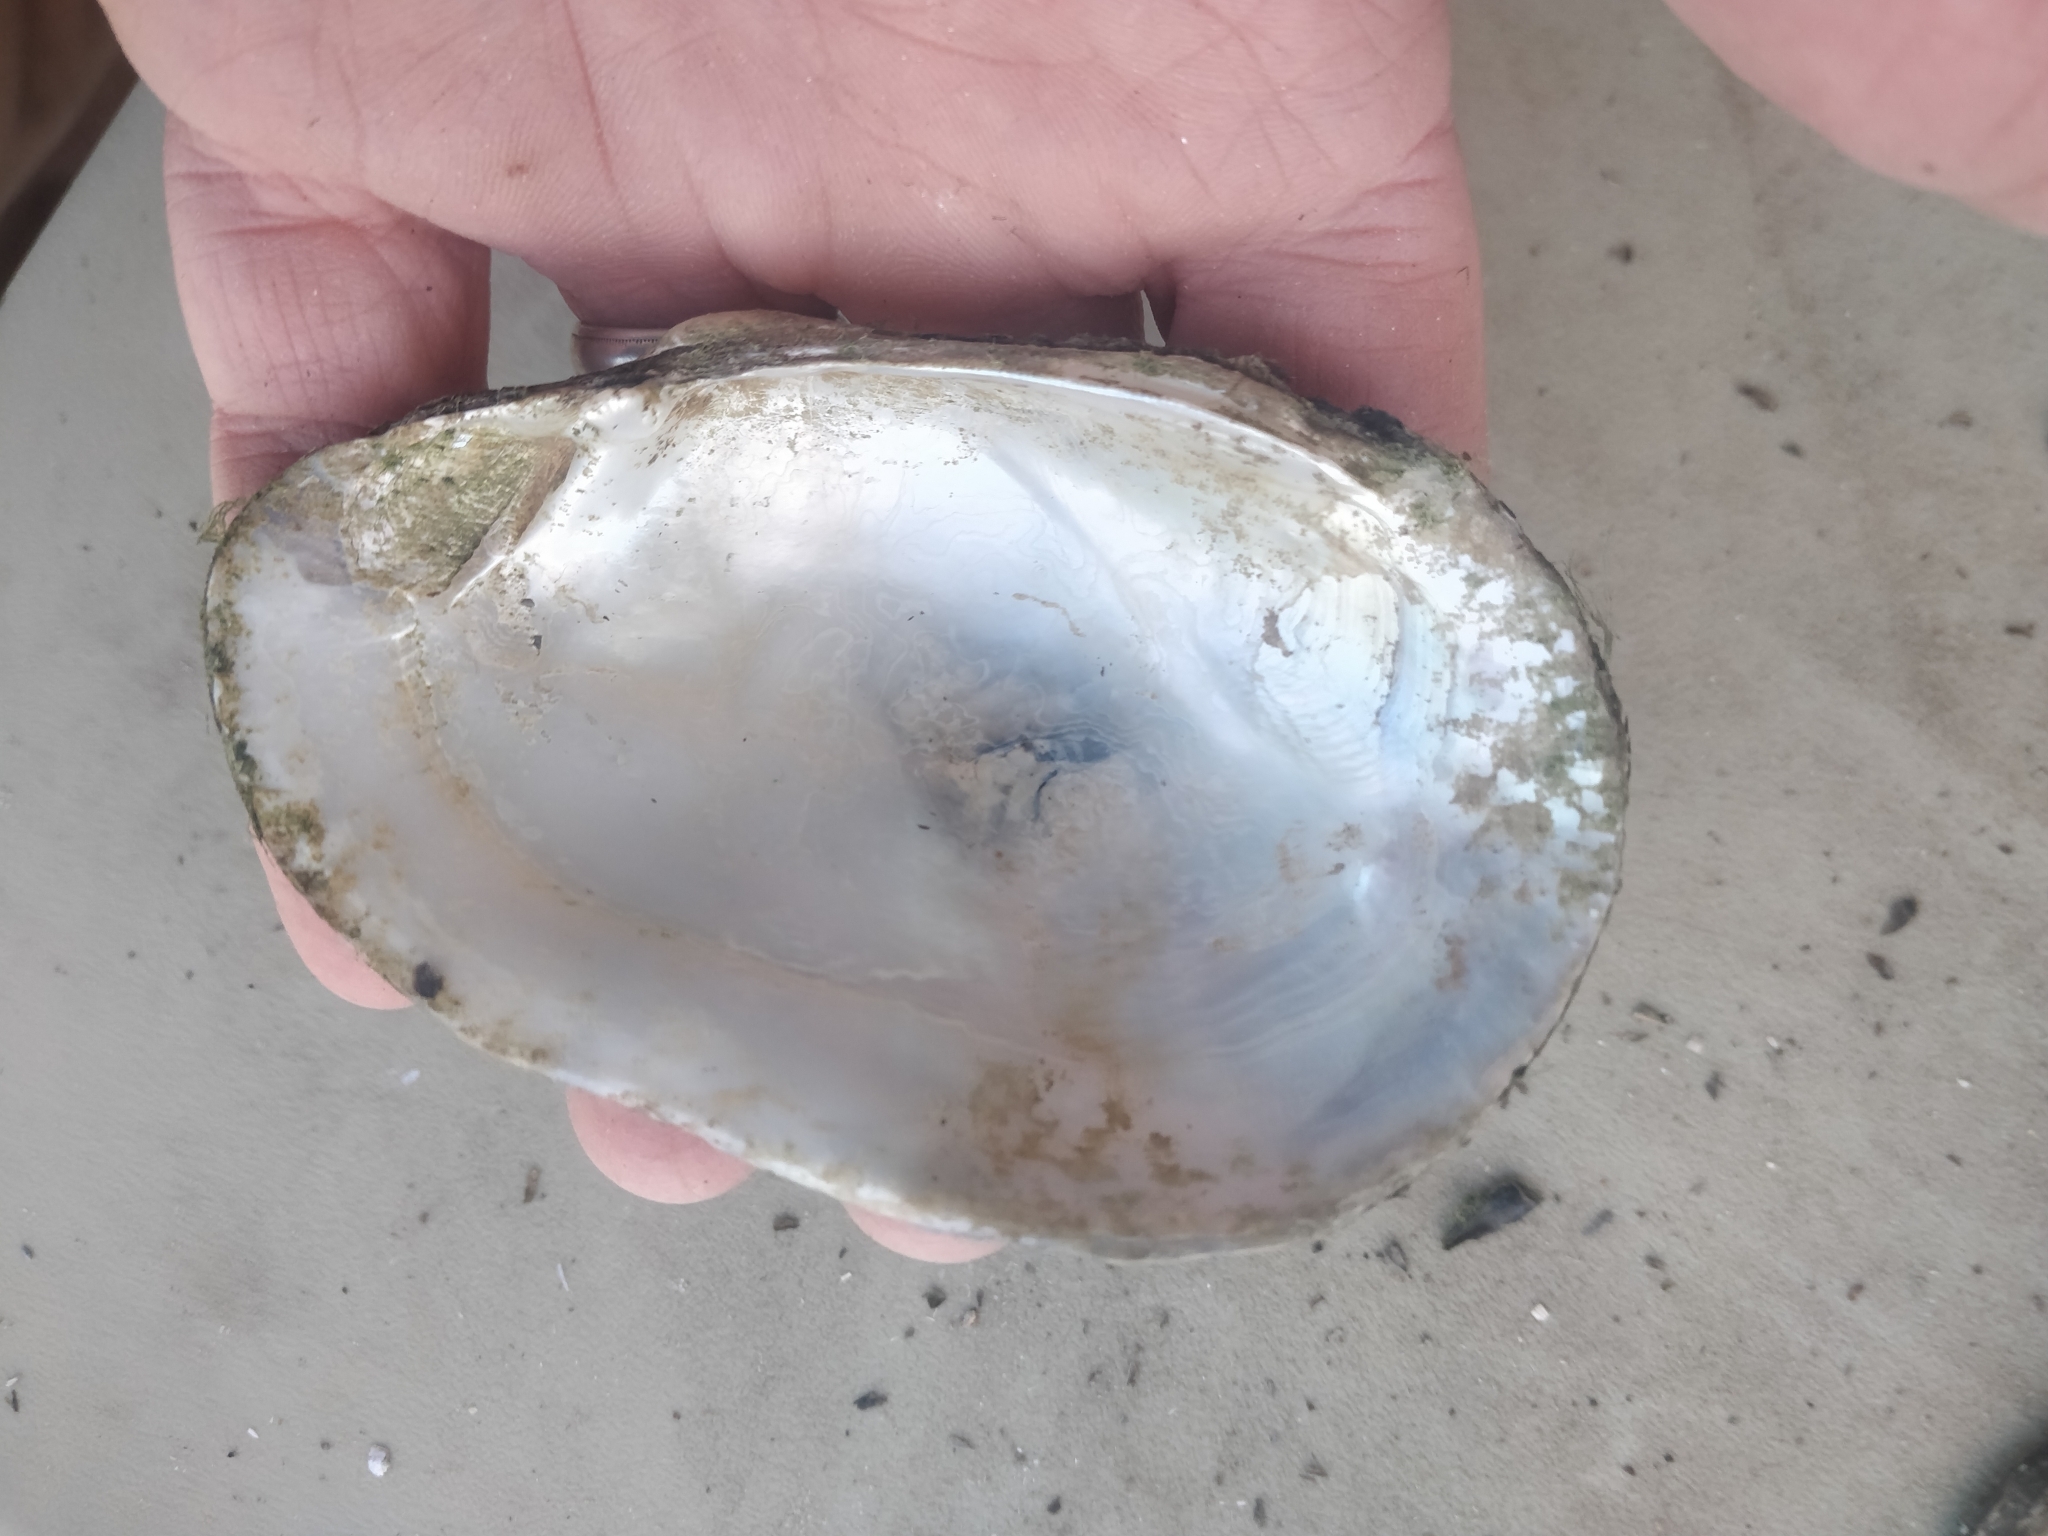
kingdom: Animalia
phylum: Mollusca
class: Bivalvia
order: Unionida
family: Unionidae
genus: Lampsilis
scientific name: Lampsilis siliquoidea
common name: Fatmucket
